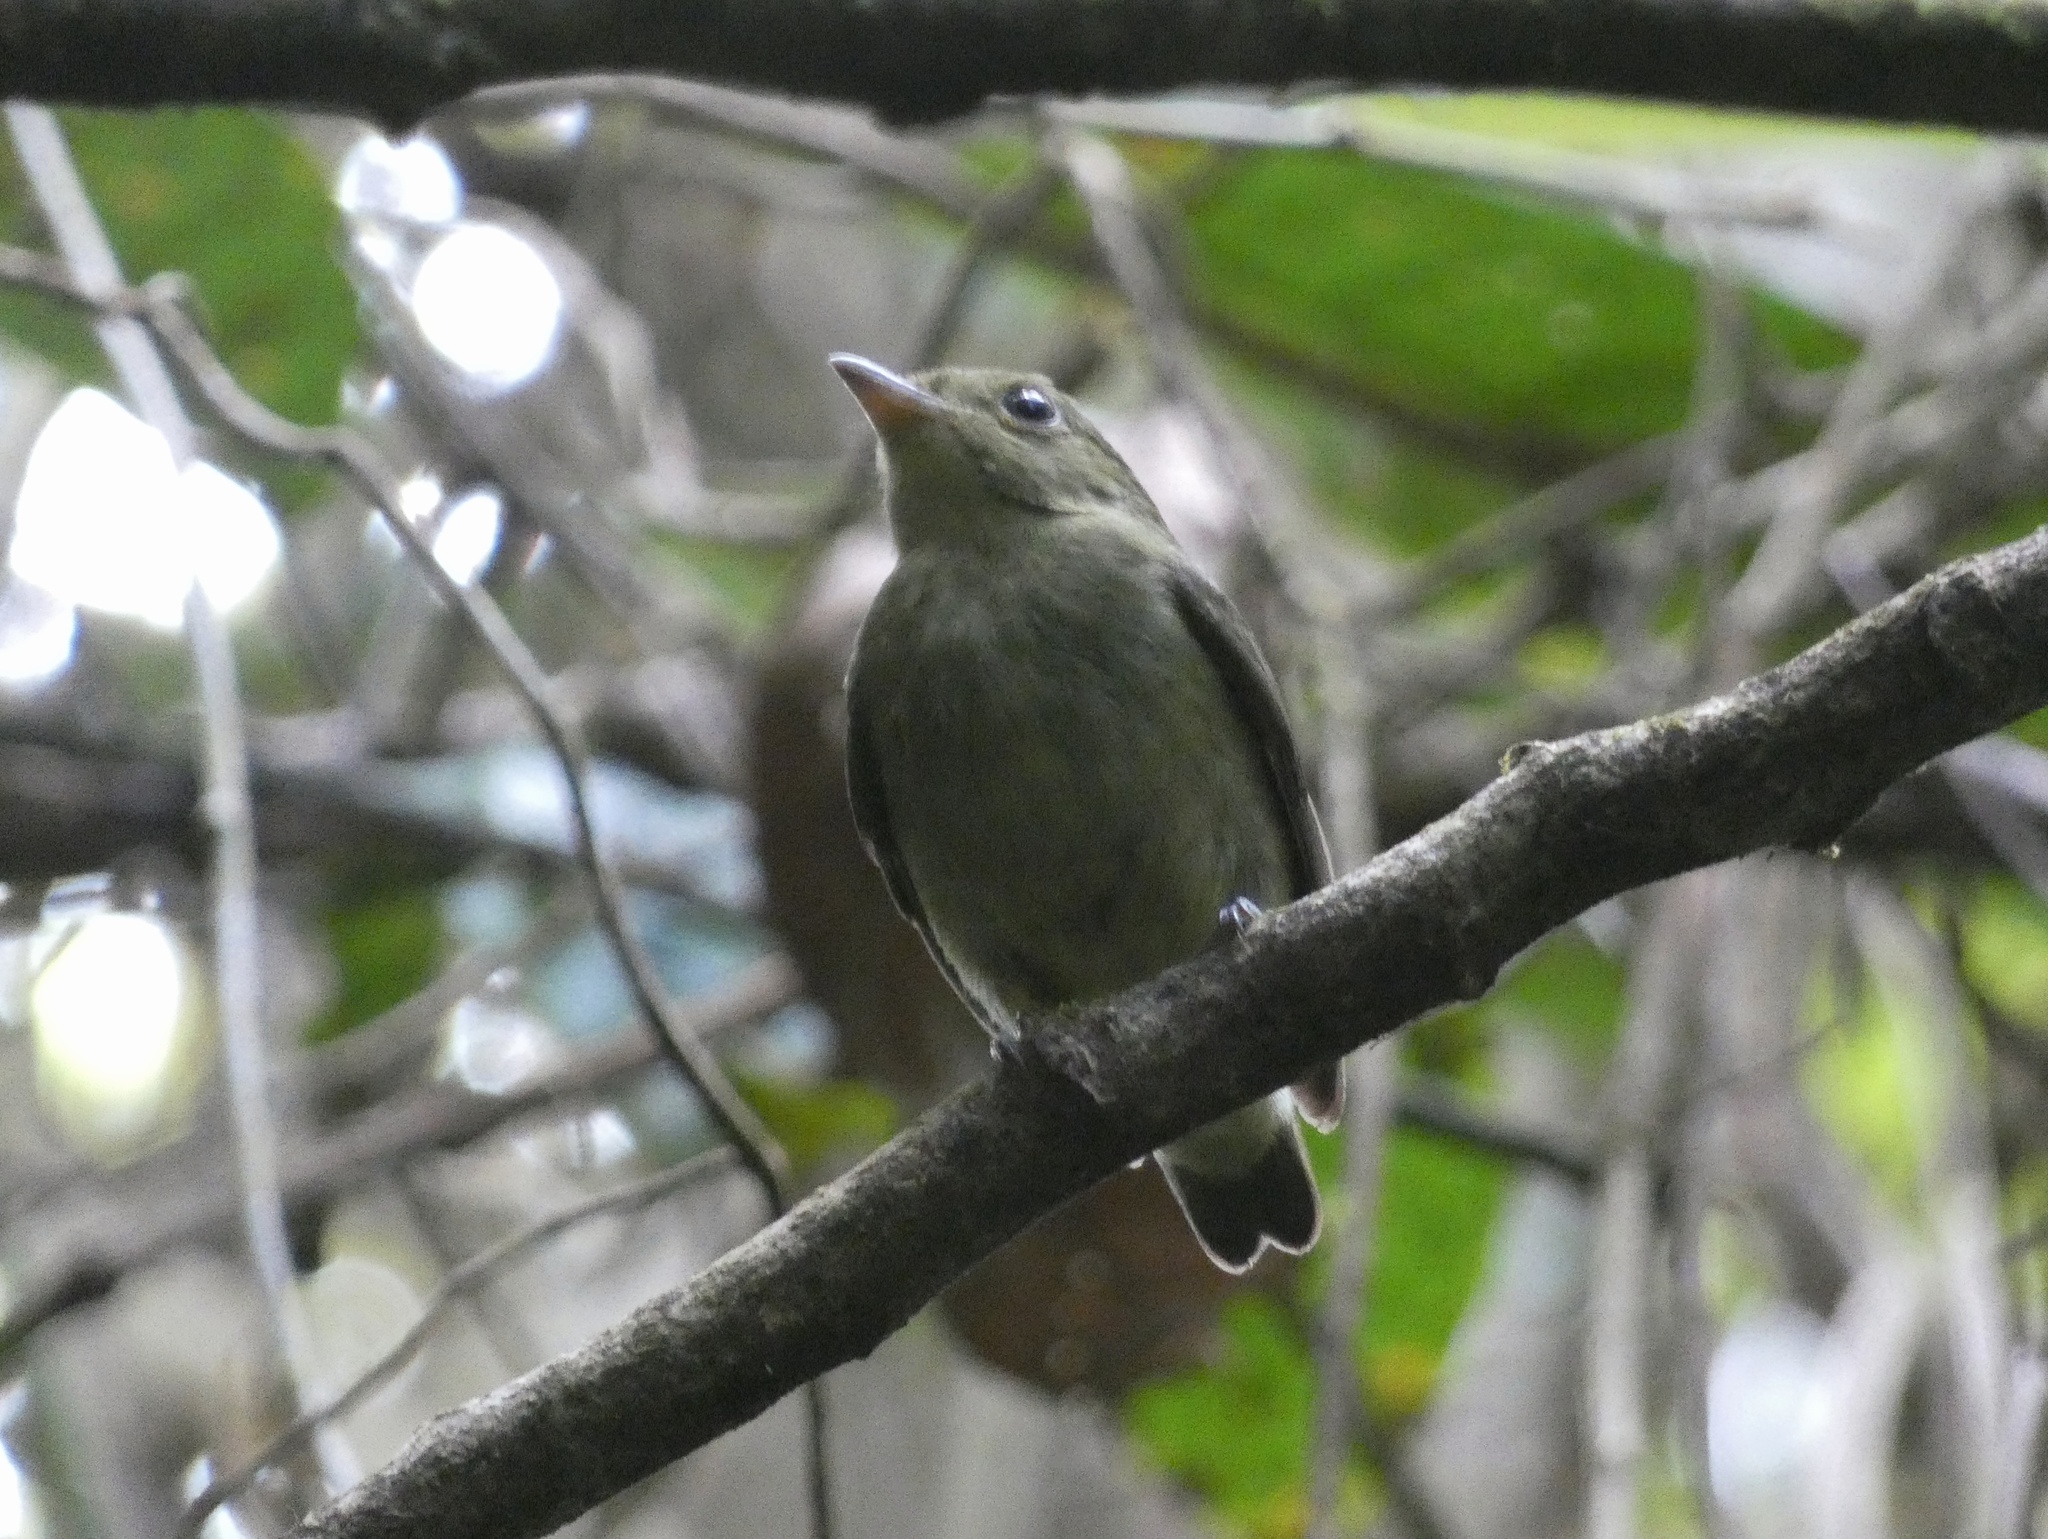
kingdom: Animalia
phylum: Chordata
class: Aves
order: Passeriformes
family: Pipridae
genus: Pipra
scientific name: Pipra mentalis
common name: Red-capped manakin
